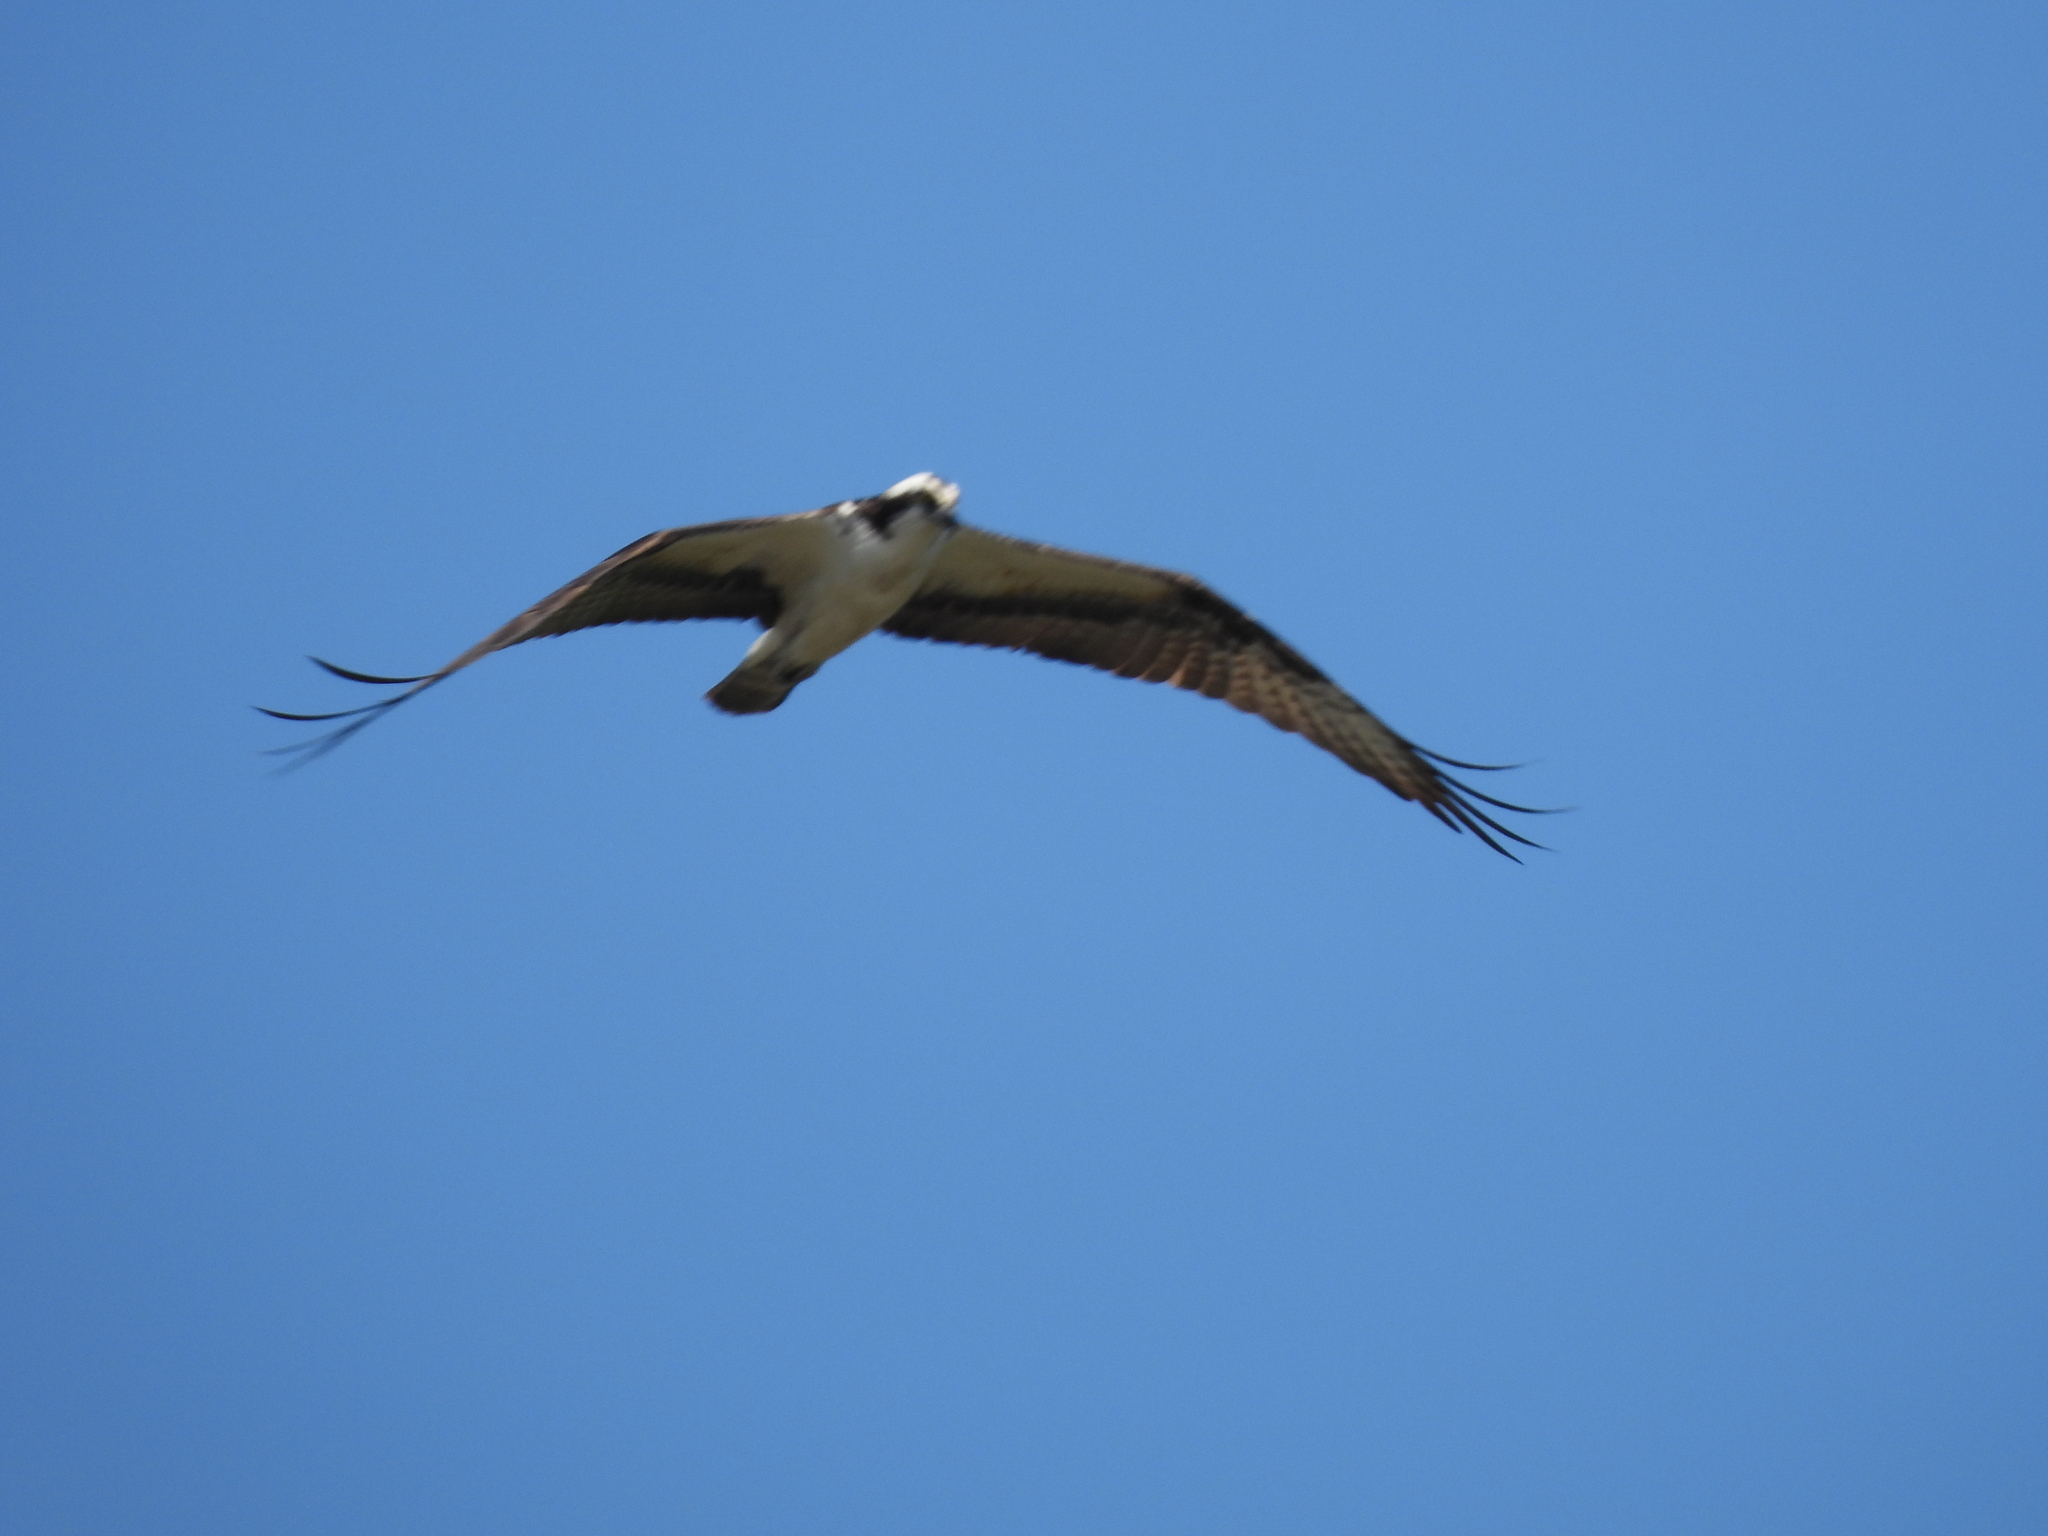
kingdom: Animalia
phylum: Chordata
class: Aves
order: Accipitriformes
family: Pandionidae
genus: Pandion
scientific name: Pandion haliaetus
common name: Osprey
